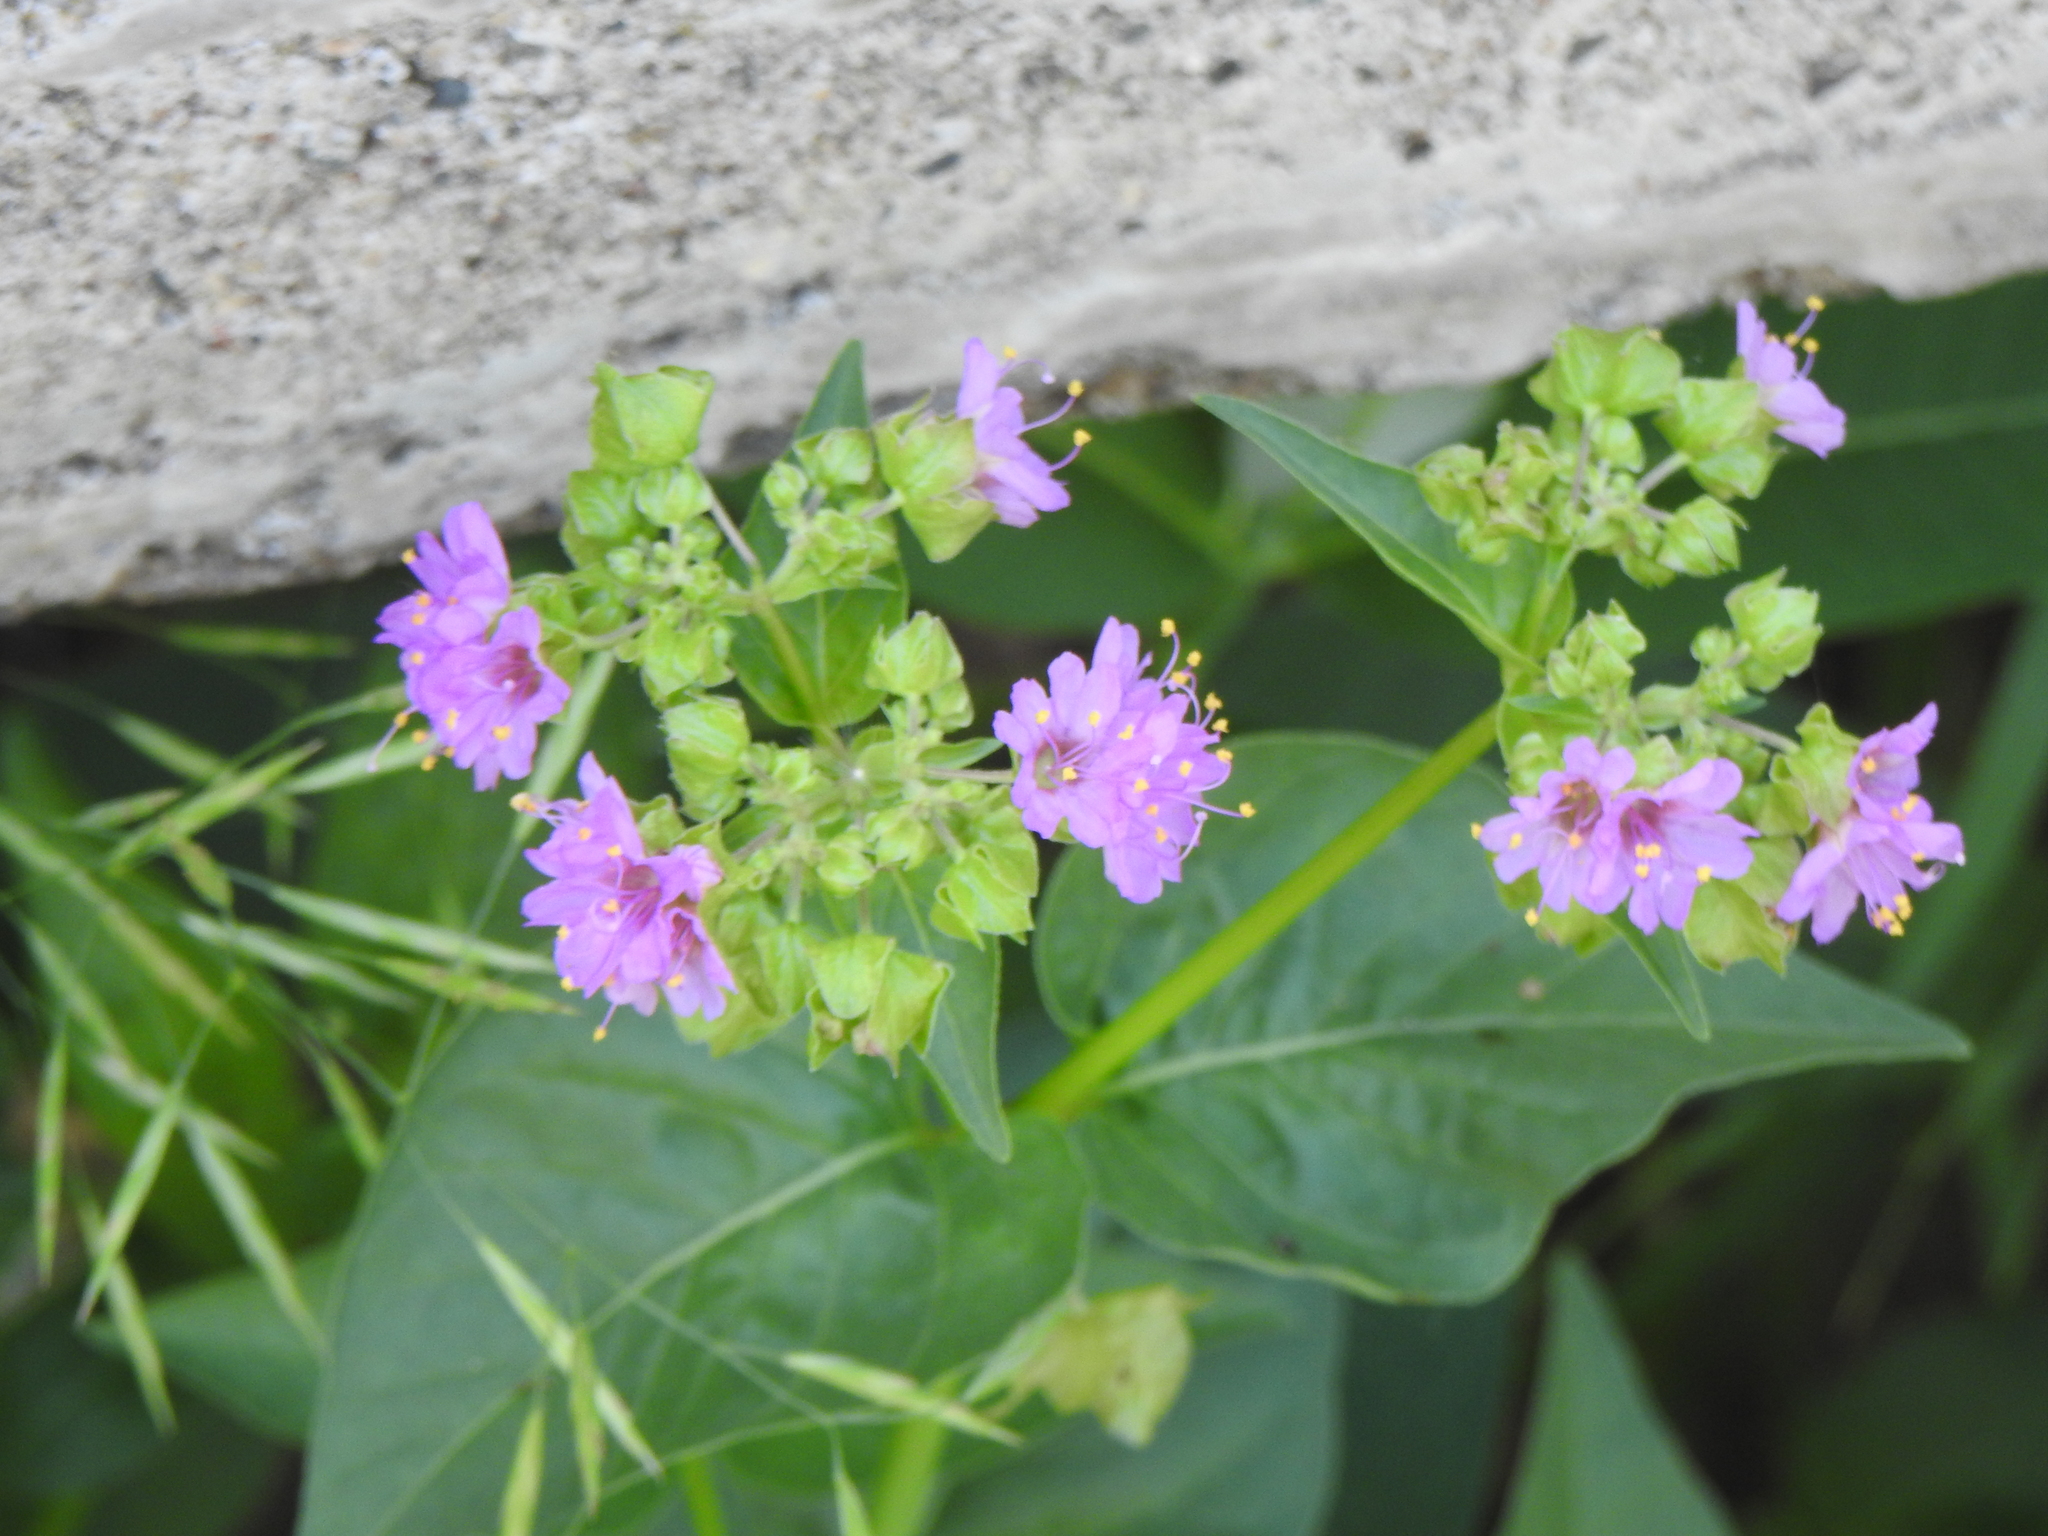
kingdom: Plantae
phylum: Tracheophyta
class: Magnoliopsida
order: Caryophyllales
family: Nyctaginaceae
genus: Mirabilis
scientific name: Mirabilis nyctaginea
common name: Umbrella wort
